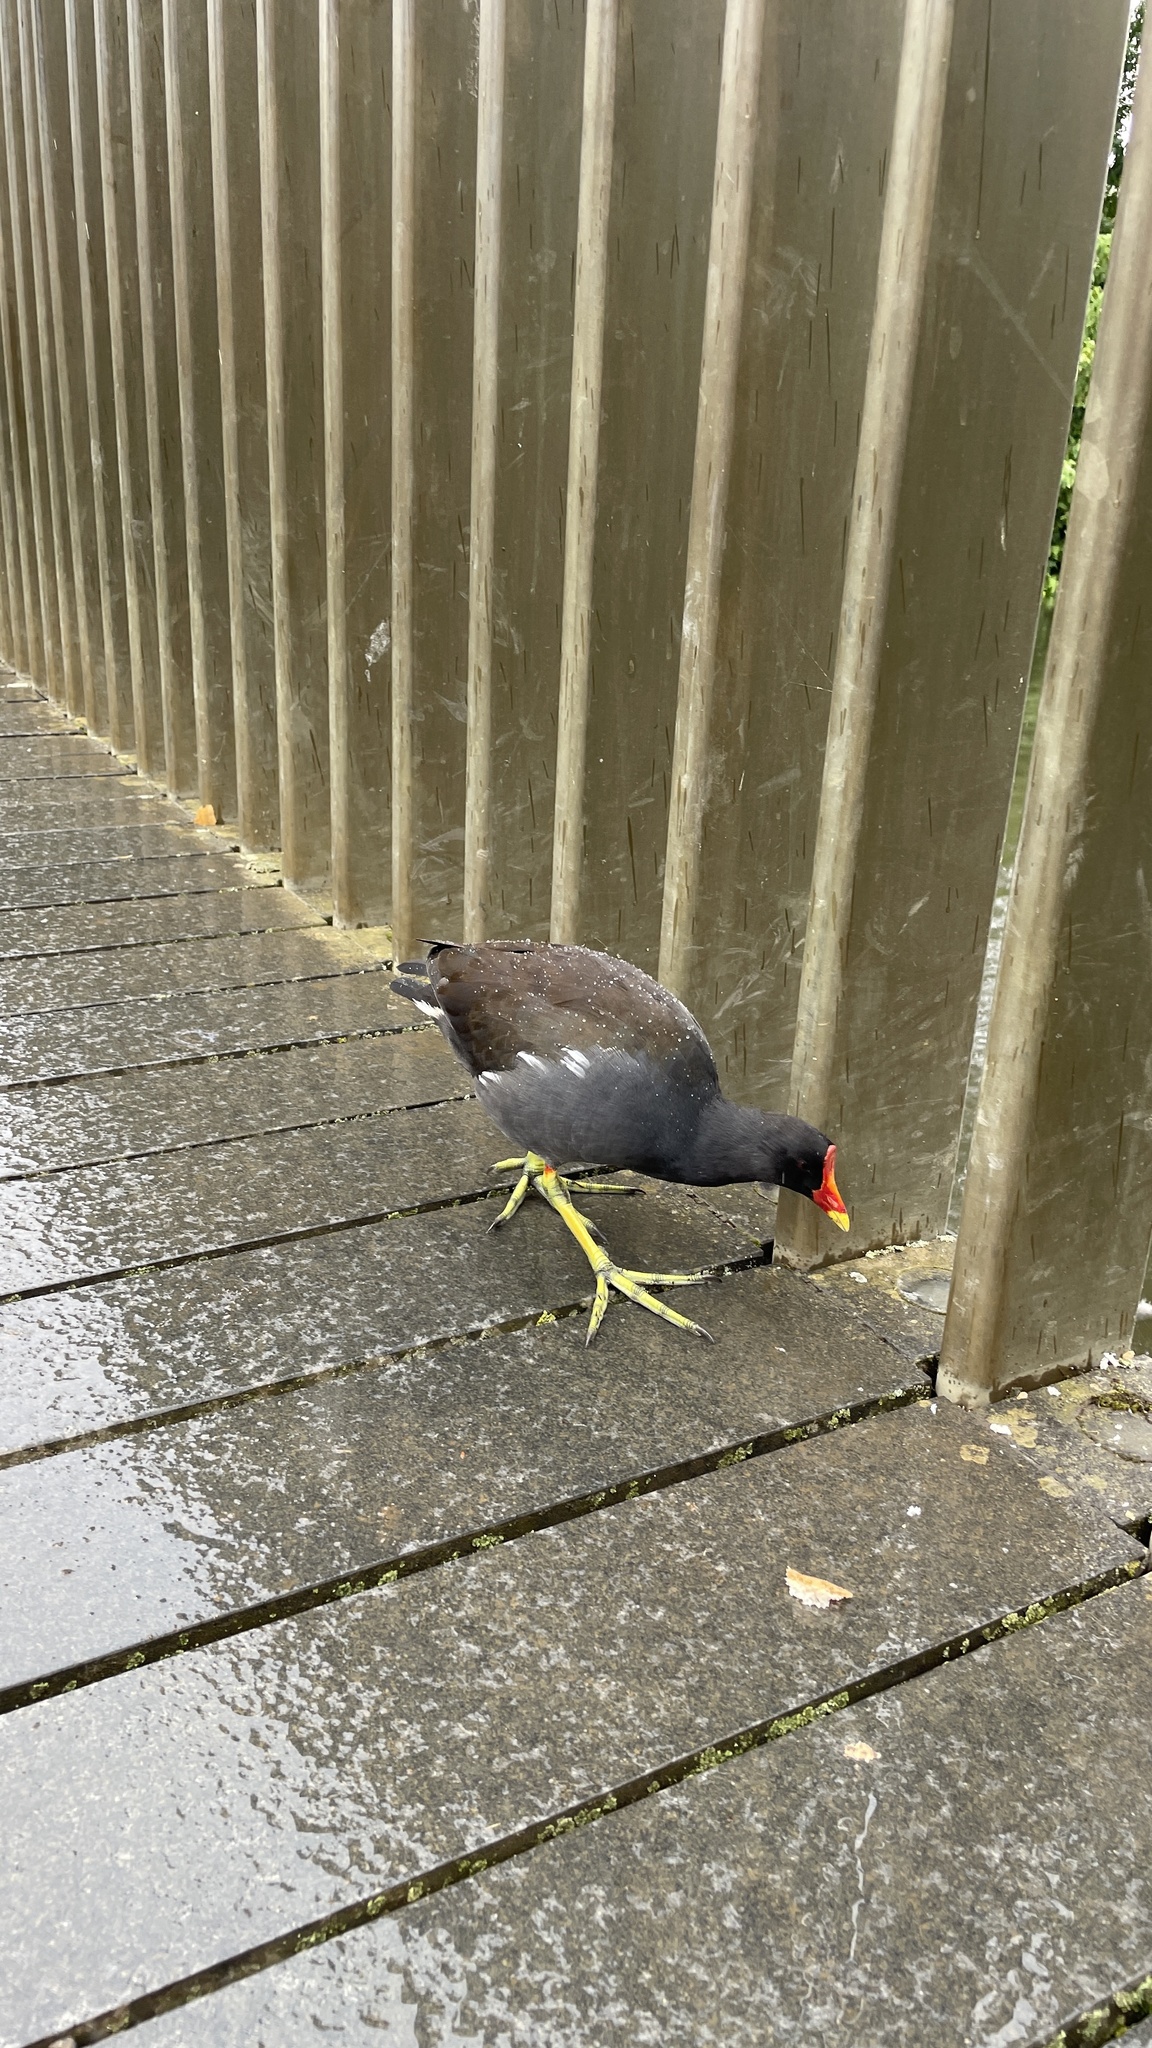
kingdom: Animalia
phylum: Chordata
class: Aves
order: Gruiformes
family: Rallidae
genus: Gallinula
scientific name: Gallinula chloropus
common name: Common moorhen
